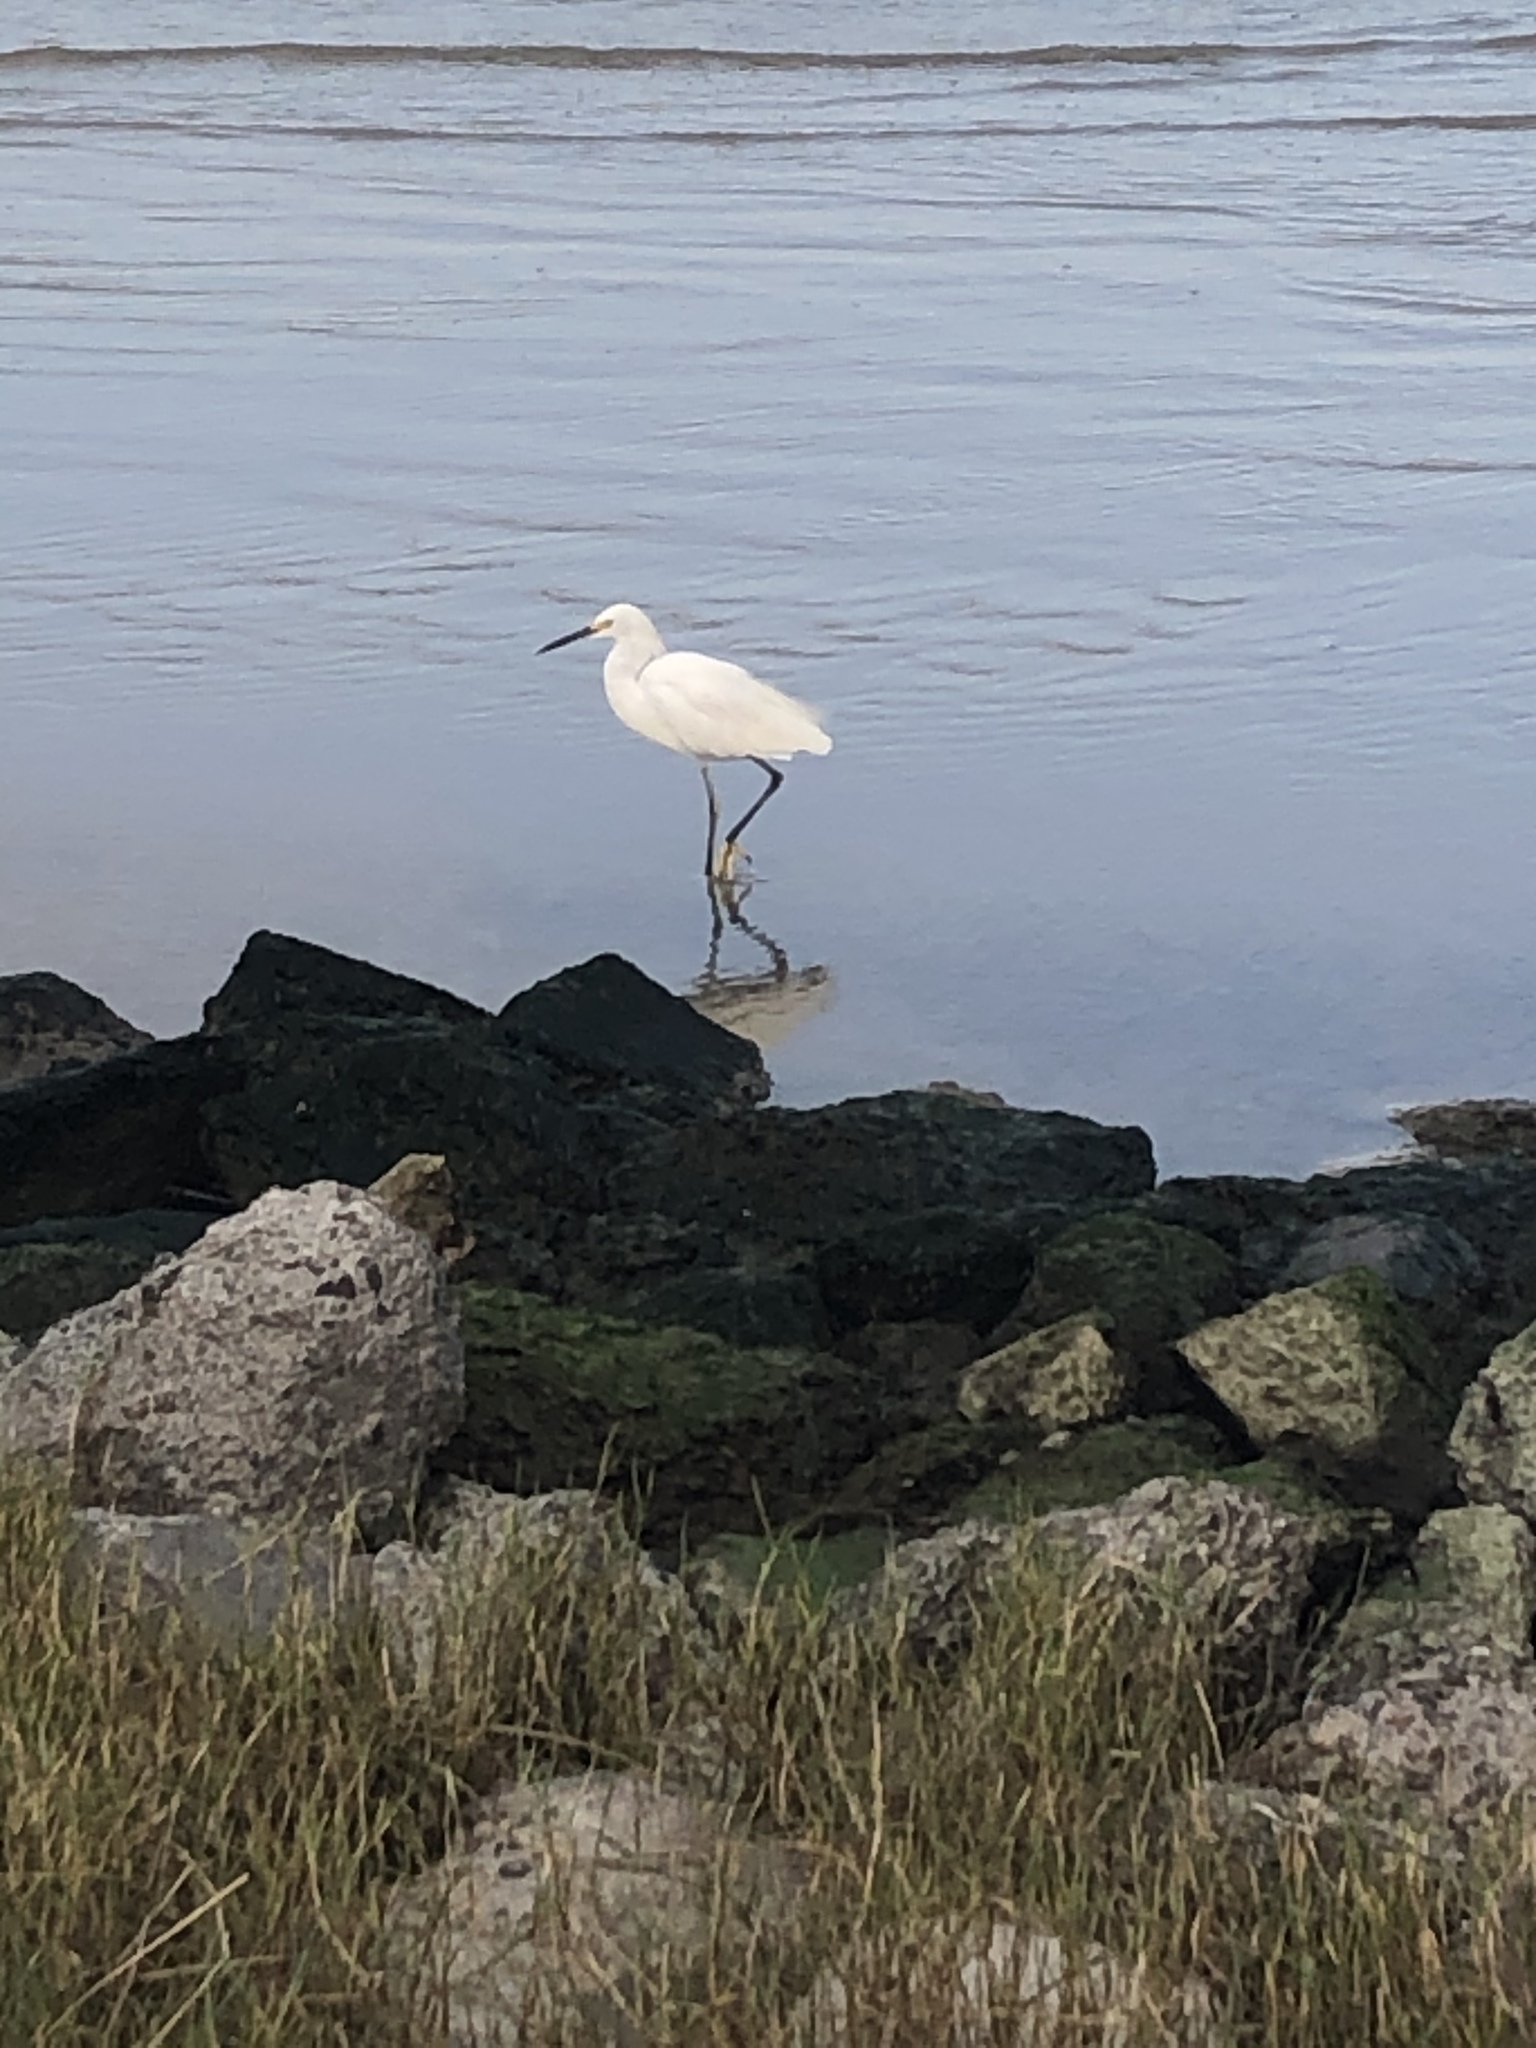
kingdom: Animalia
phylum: Chordata
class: Aves
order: Pelecaniformes
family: Ardeidae
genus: Egretta
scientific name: Egretta thula
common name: Snowy egret
